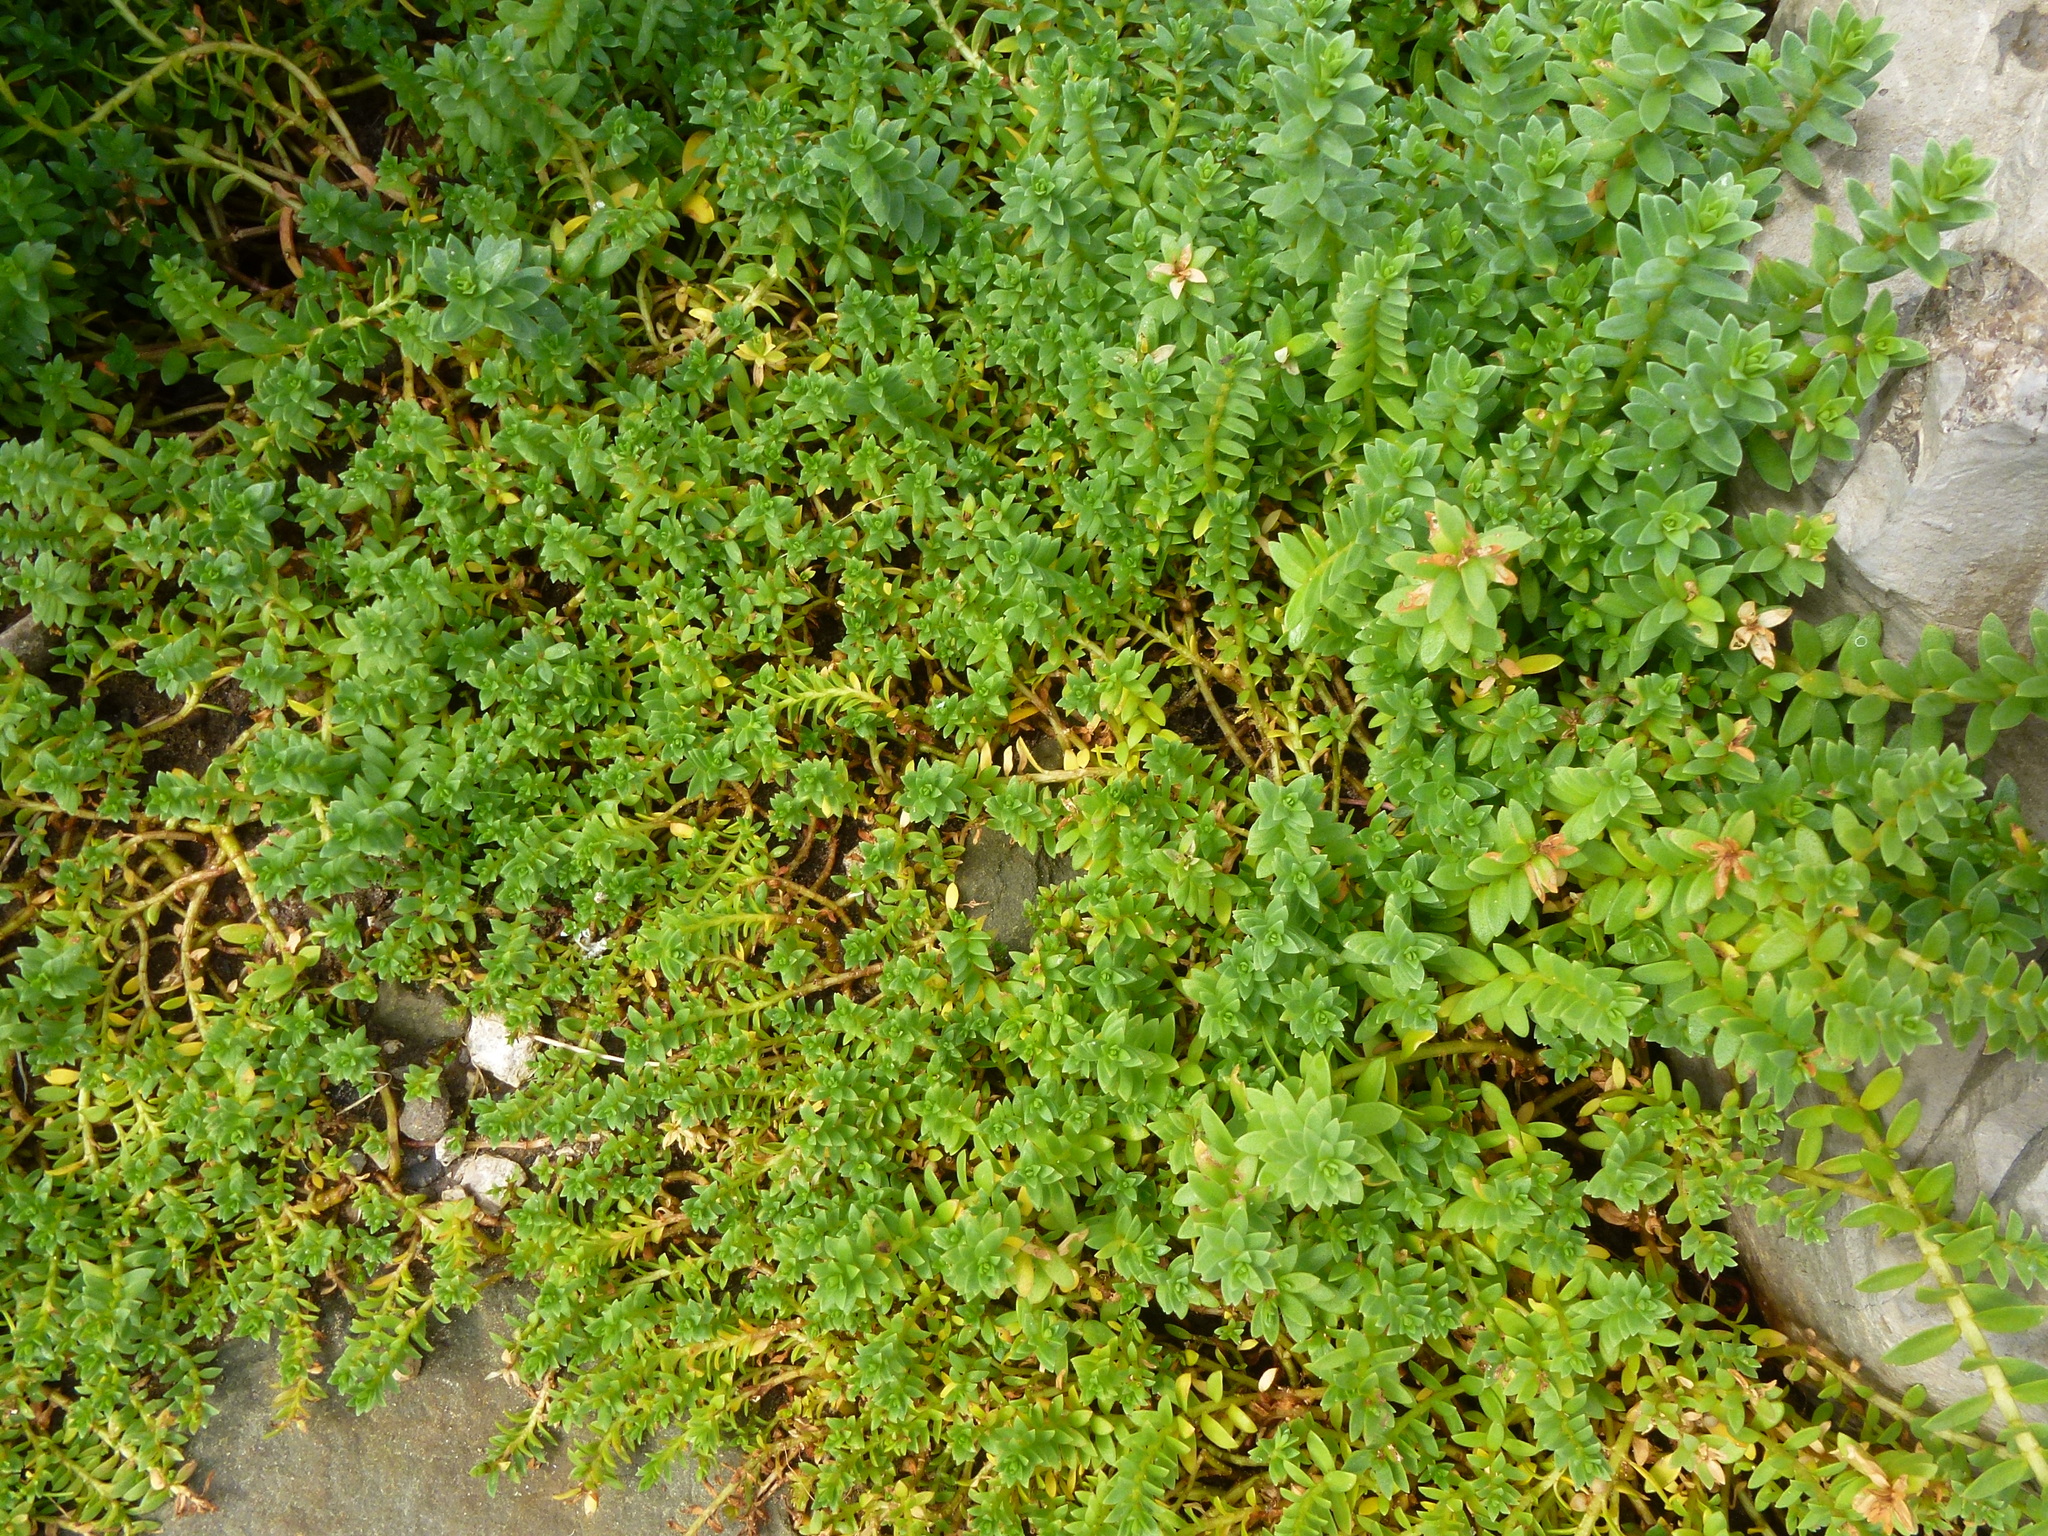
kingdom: Plantae
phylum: Tracheophyta
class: Magnoliopsida
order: Ericales
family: Primulaceae
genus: Lysimachia
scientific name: Lysimachia maritima
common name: Sea milkwort
